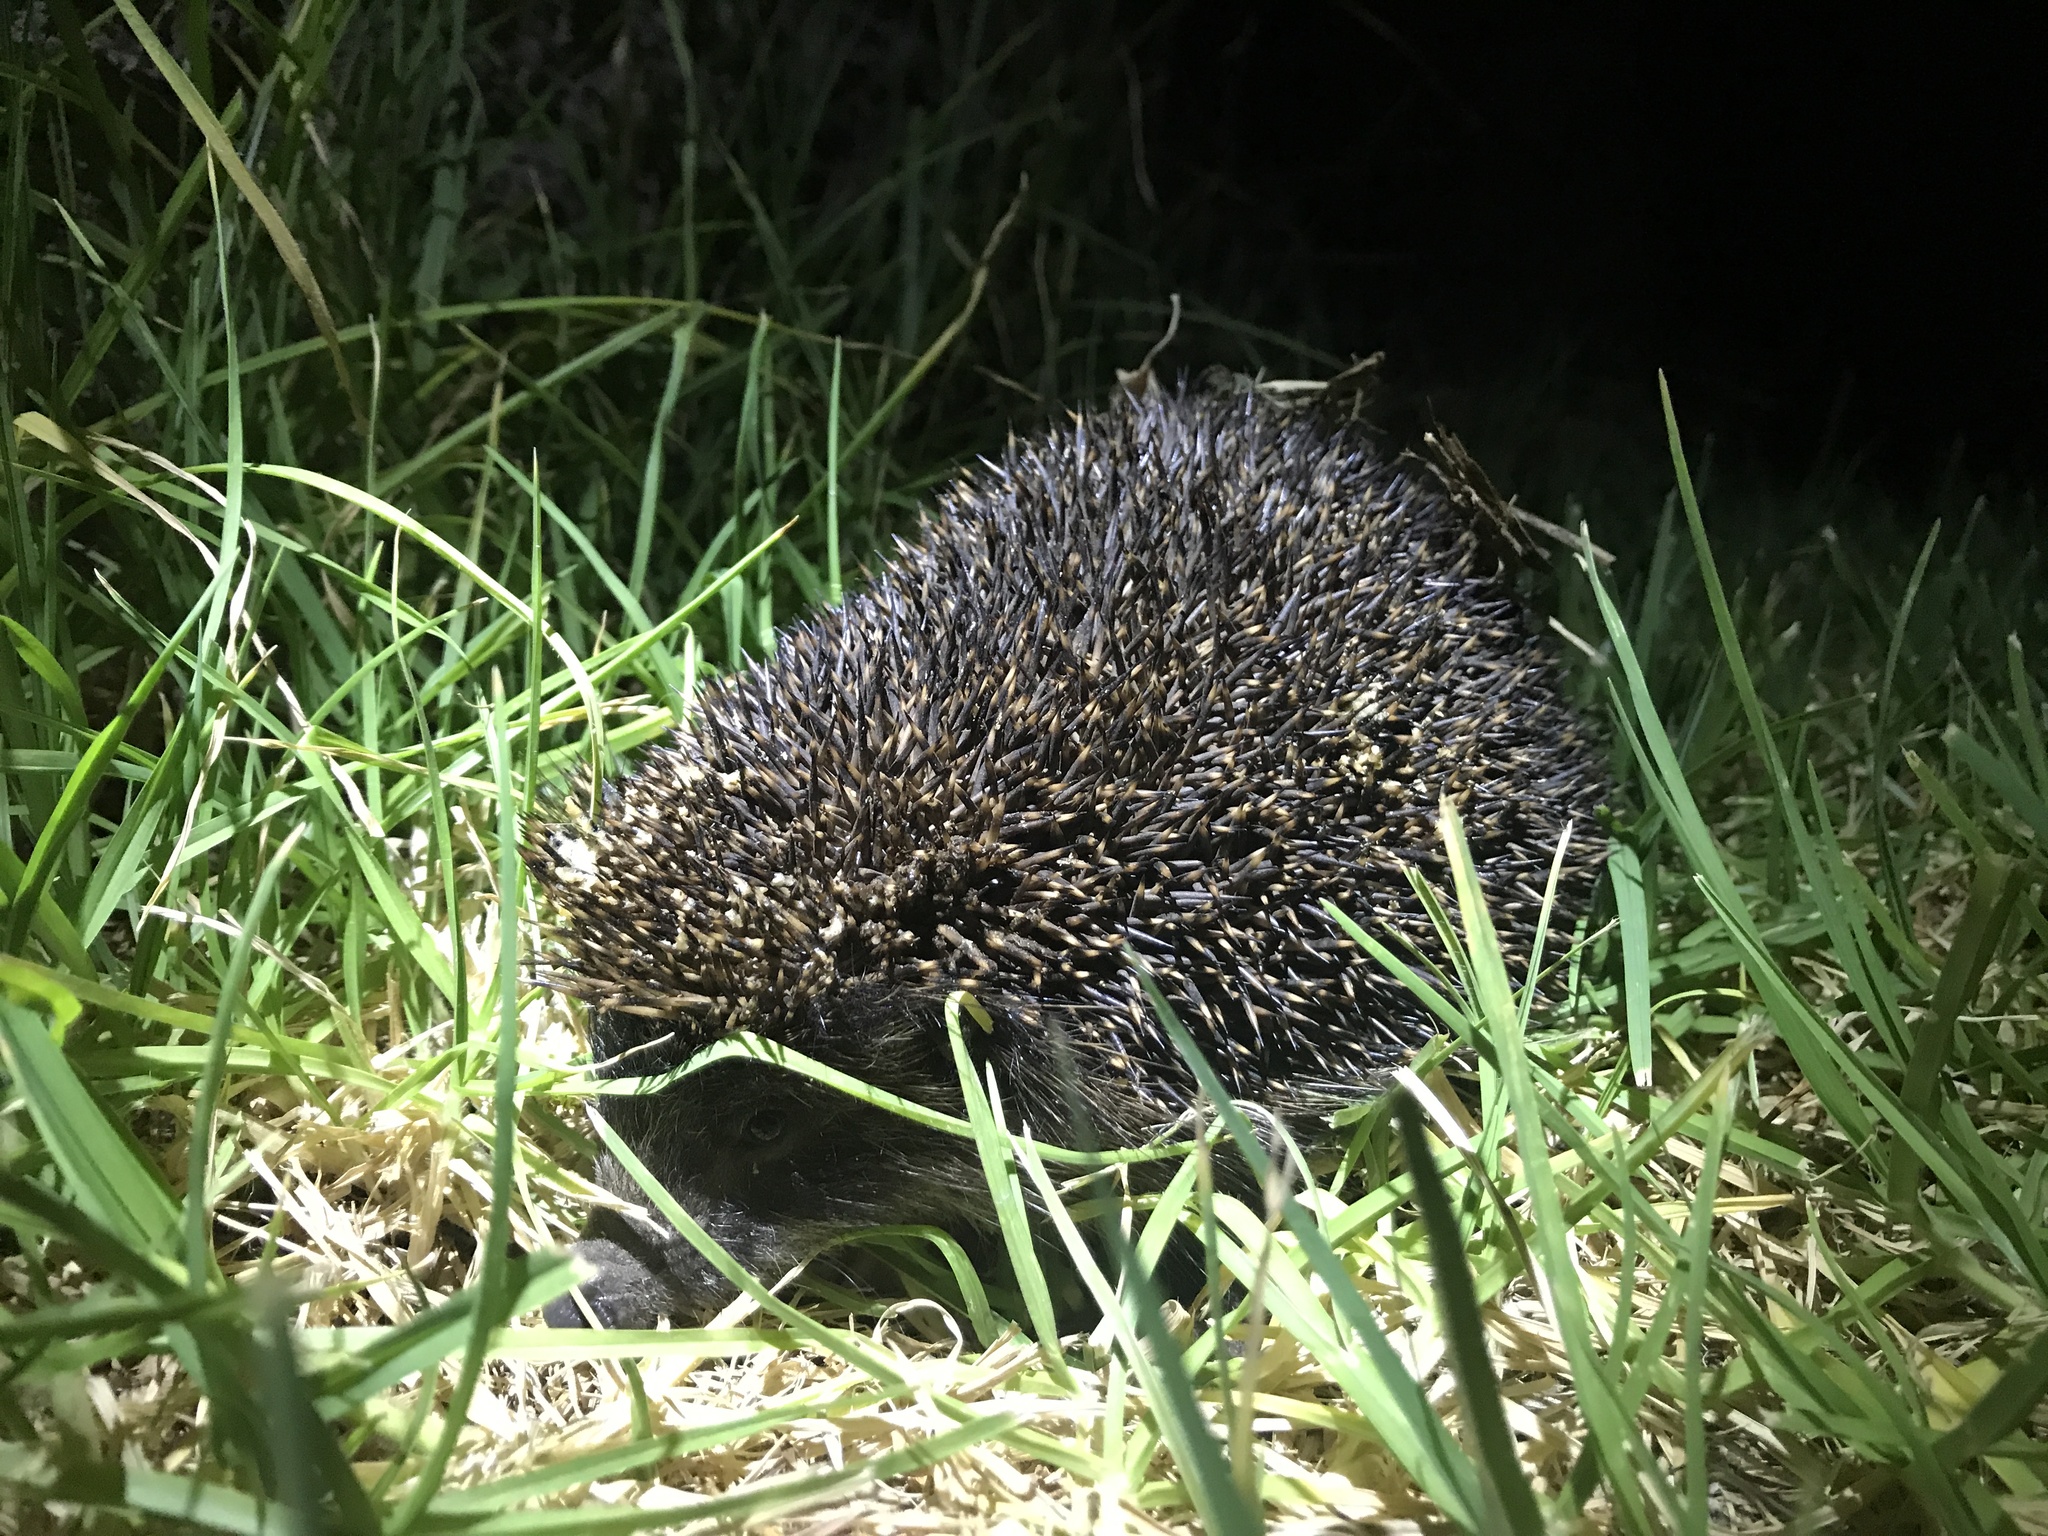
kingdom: Animalia
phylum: Chordata
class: Mammalia
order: Erinaceomorpha
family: Erinaceidae
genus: Erinaceus
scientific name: Erinaceus europaeus
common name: West european hedgehog
